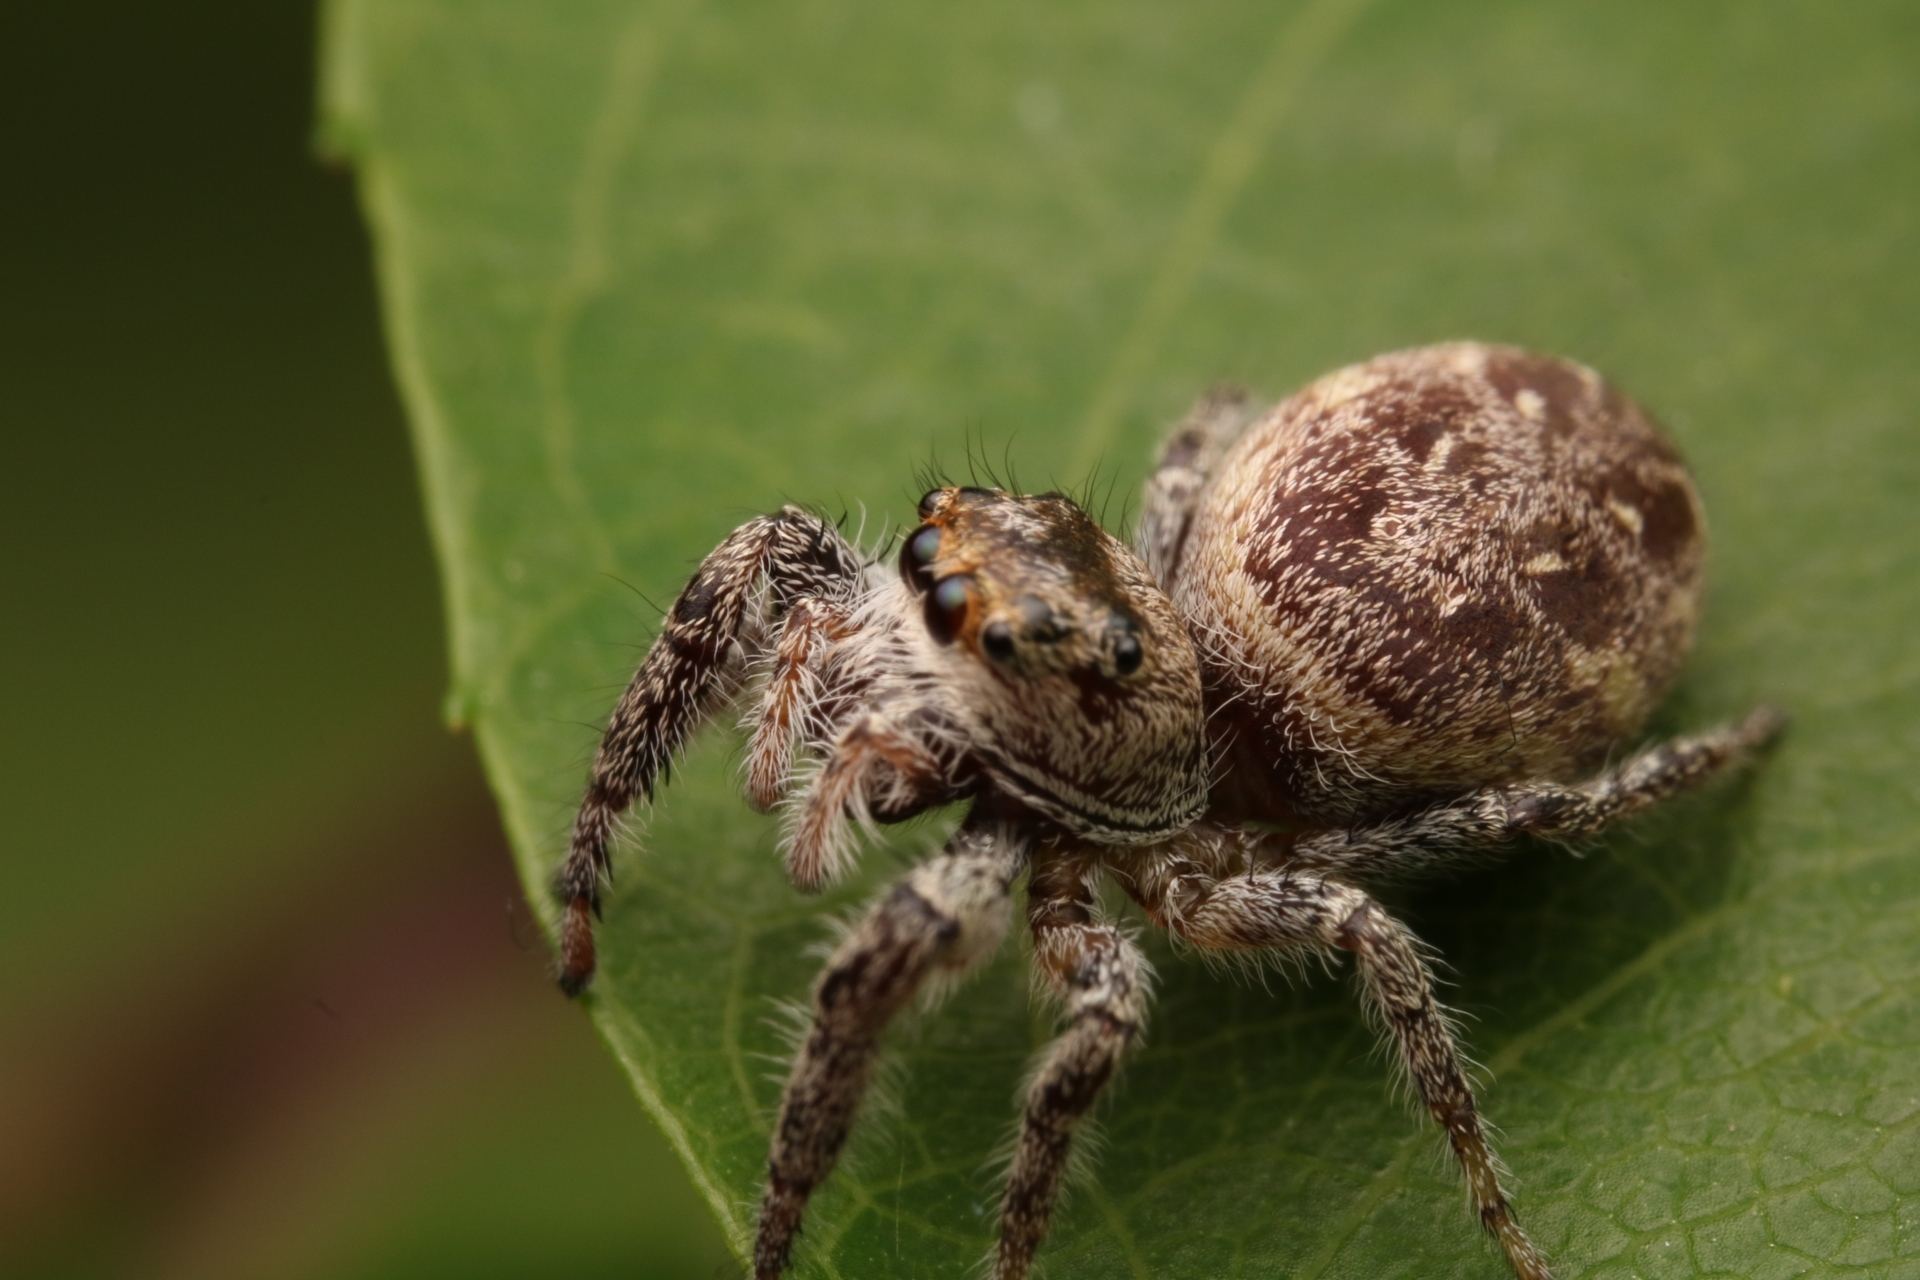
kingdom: Animalia
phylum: Arthropoda
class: Arachnida
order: Araneae
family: Salticidae
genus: Eris
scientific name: Eris militaris
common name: Bronze jumper
